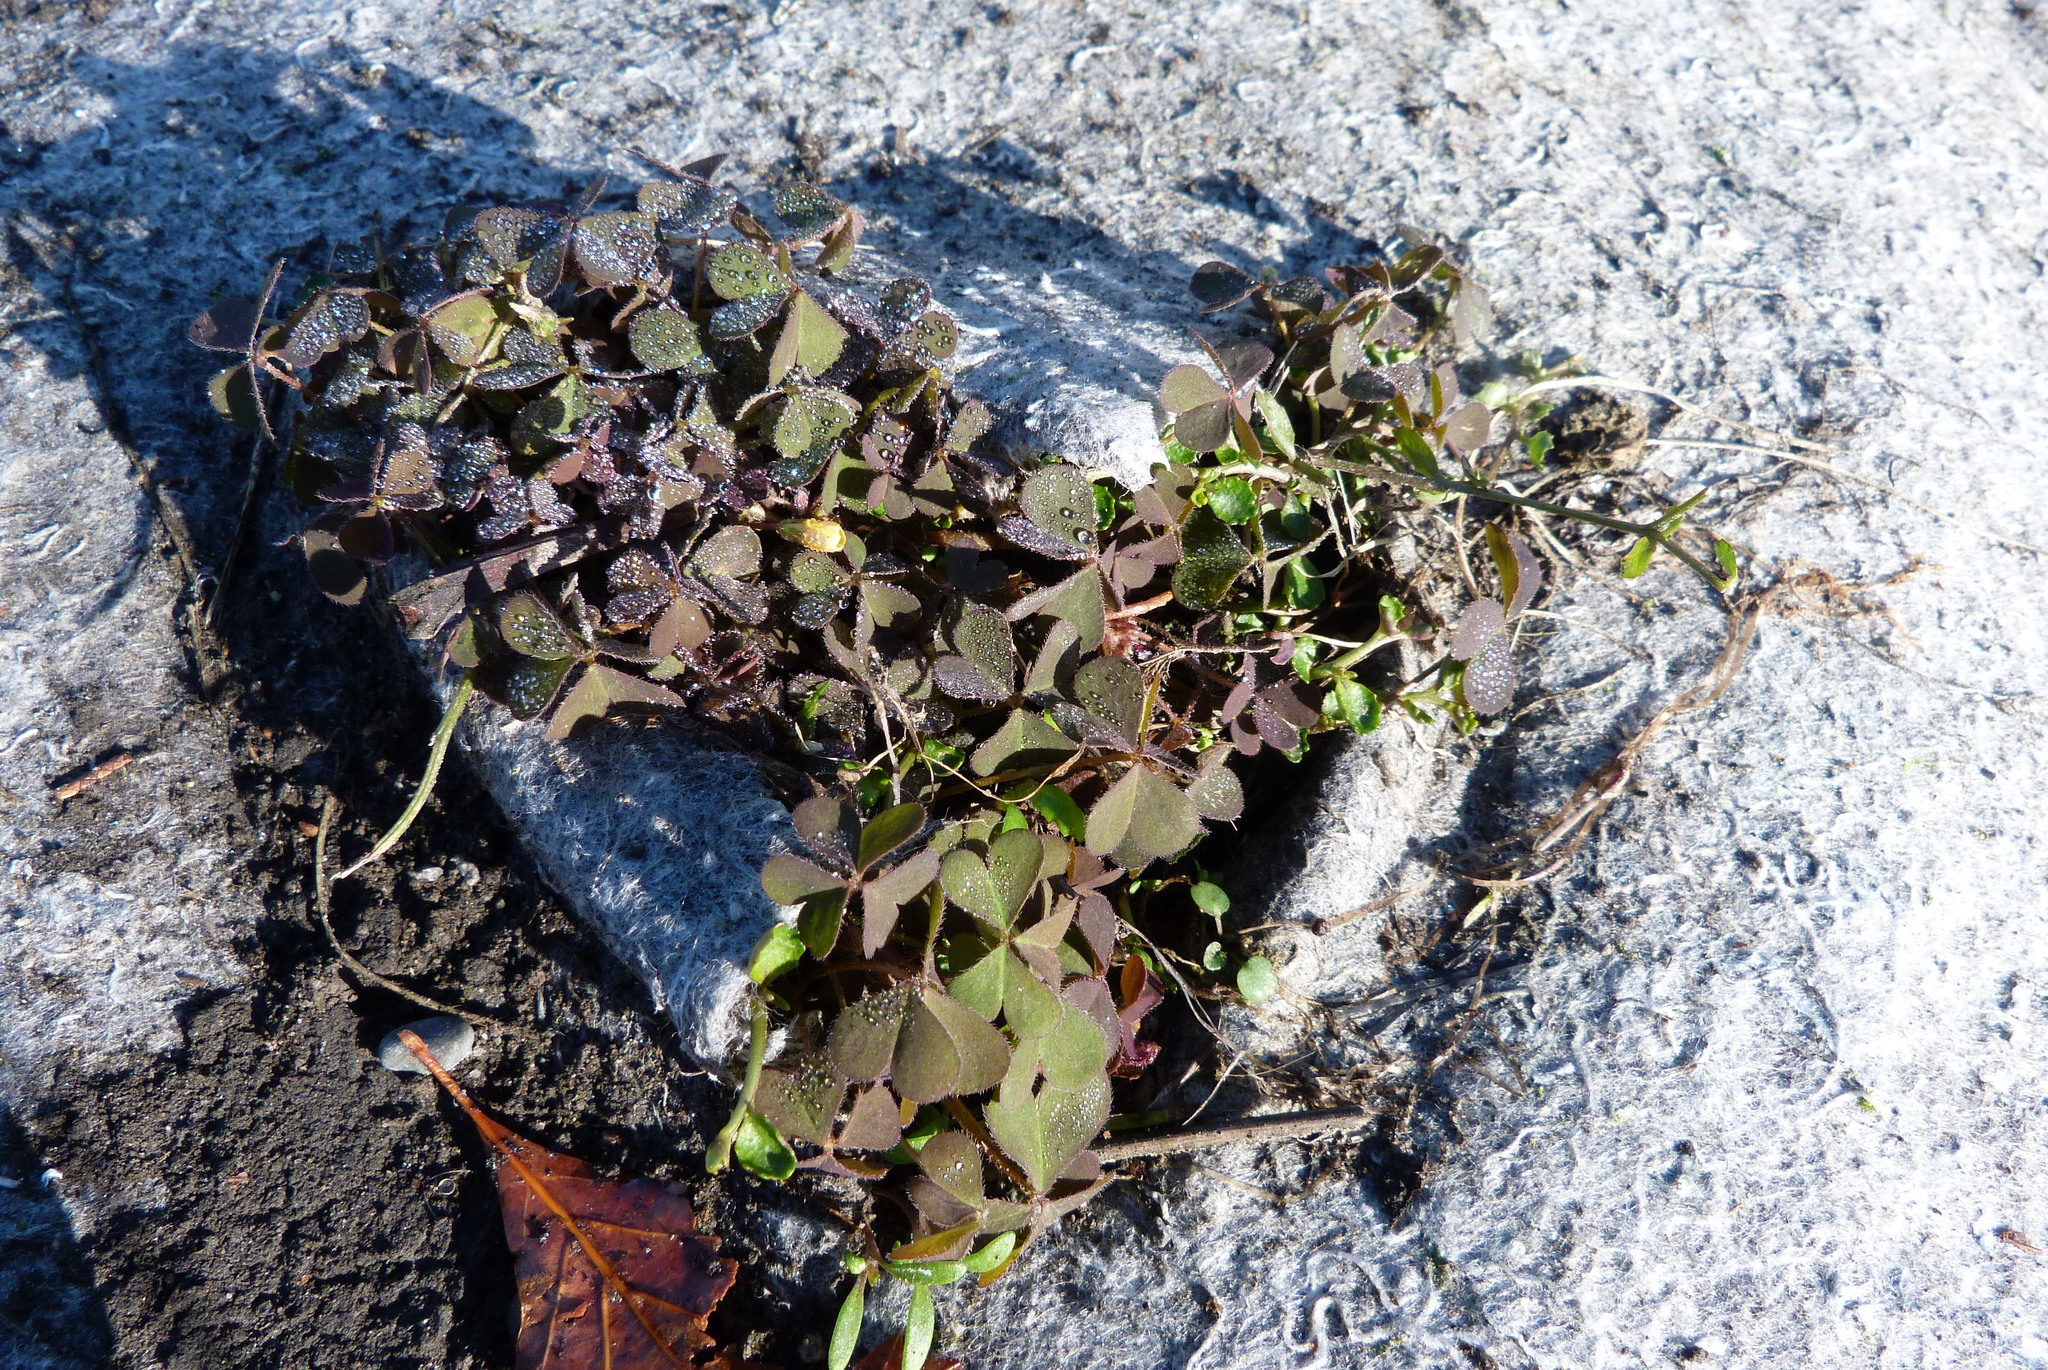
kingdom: Plantae
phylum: Tracheophyta
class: Magnoliopsida
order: Oxalidales
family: Oxalidaceae
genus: Oxalis
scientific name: Oxalis corniculata
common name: Procumbent yellow-sorrel
